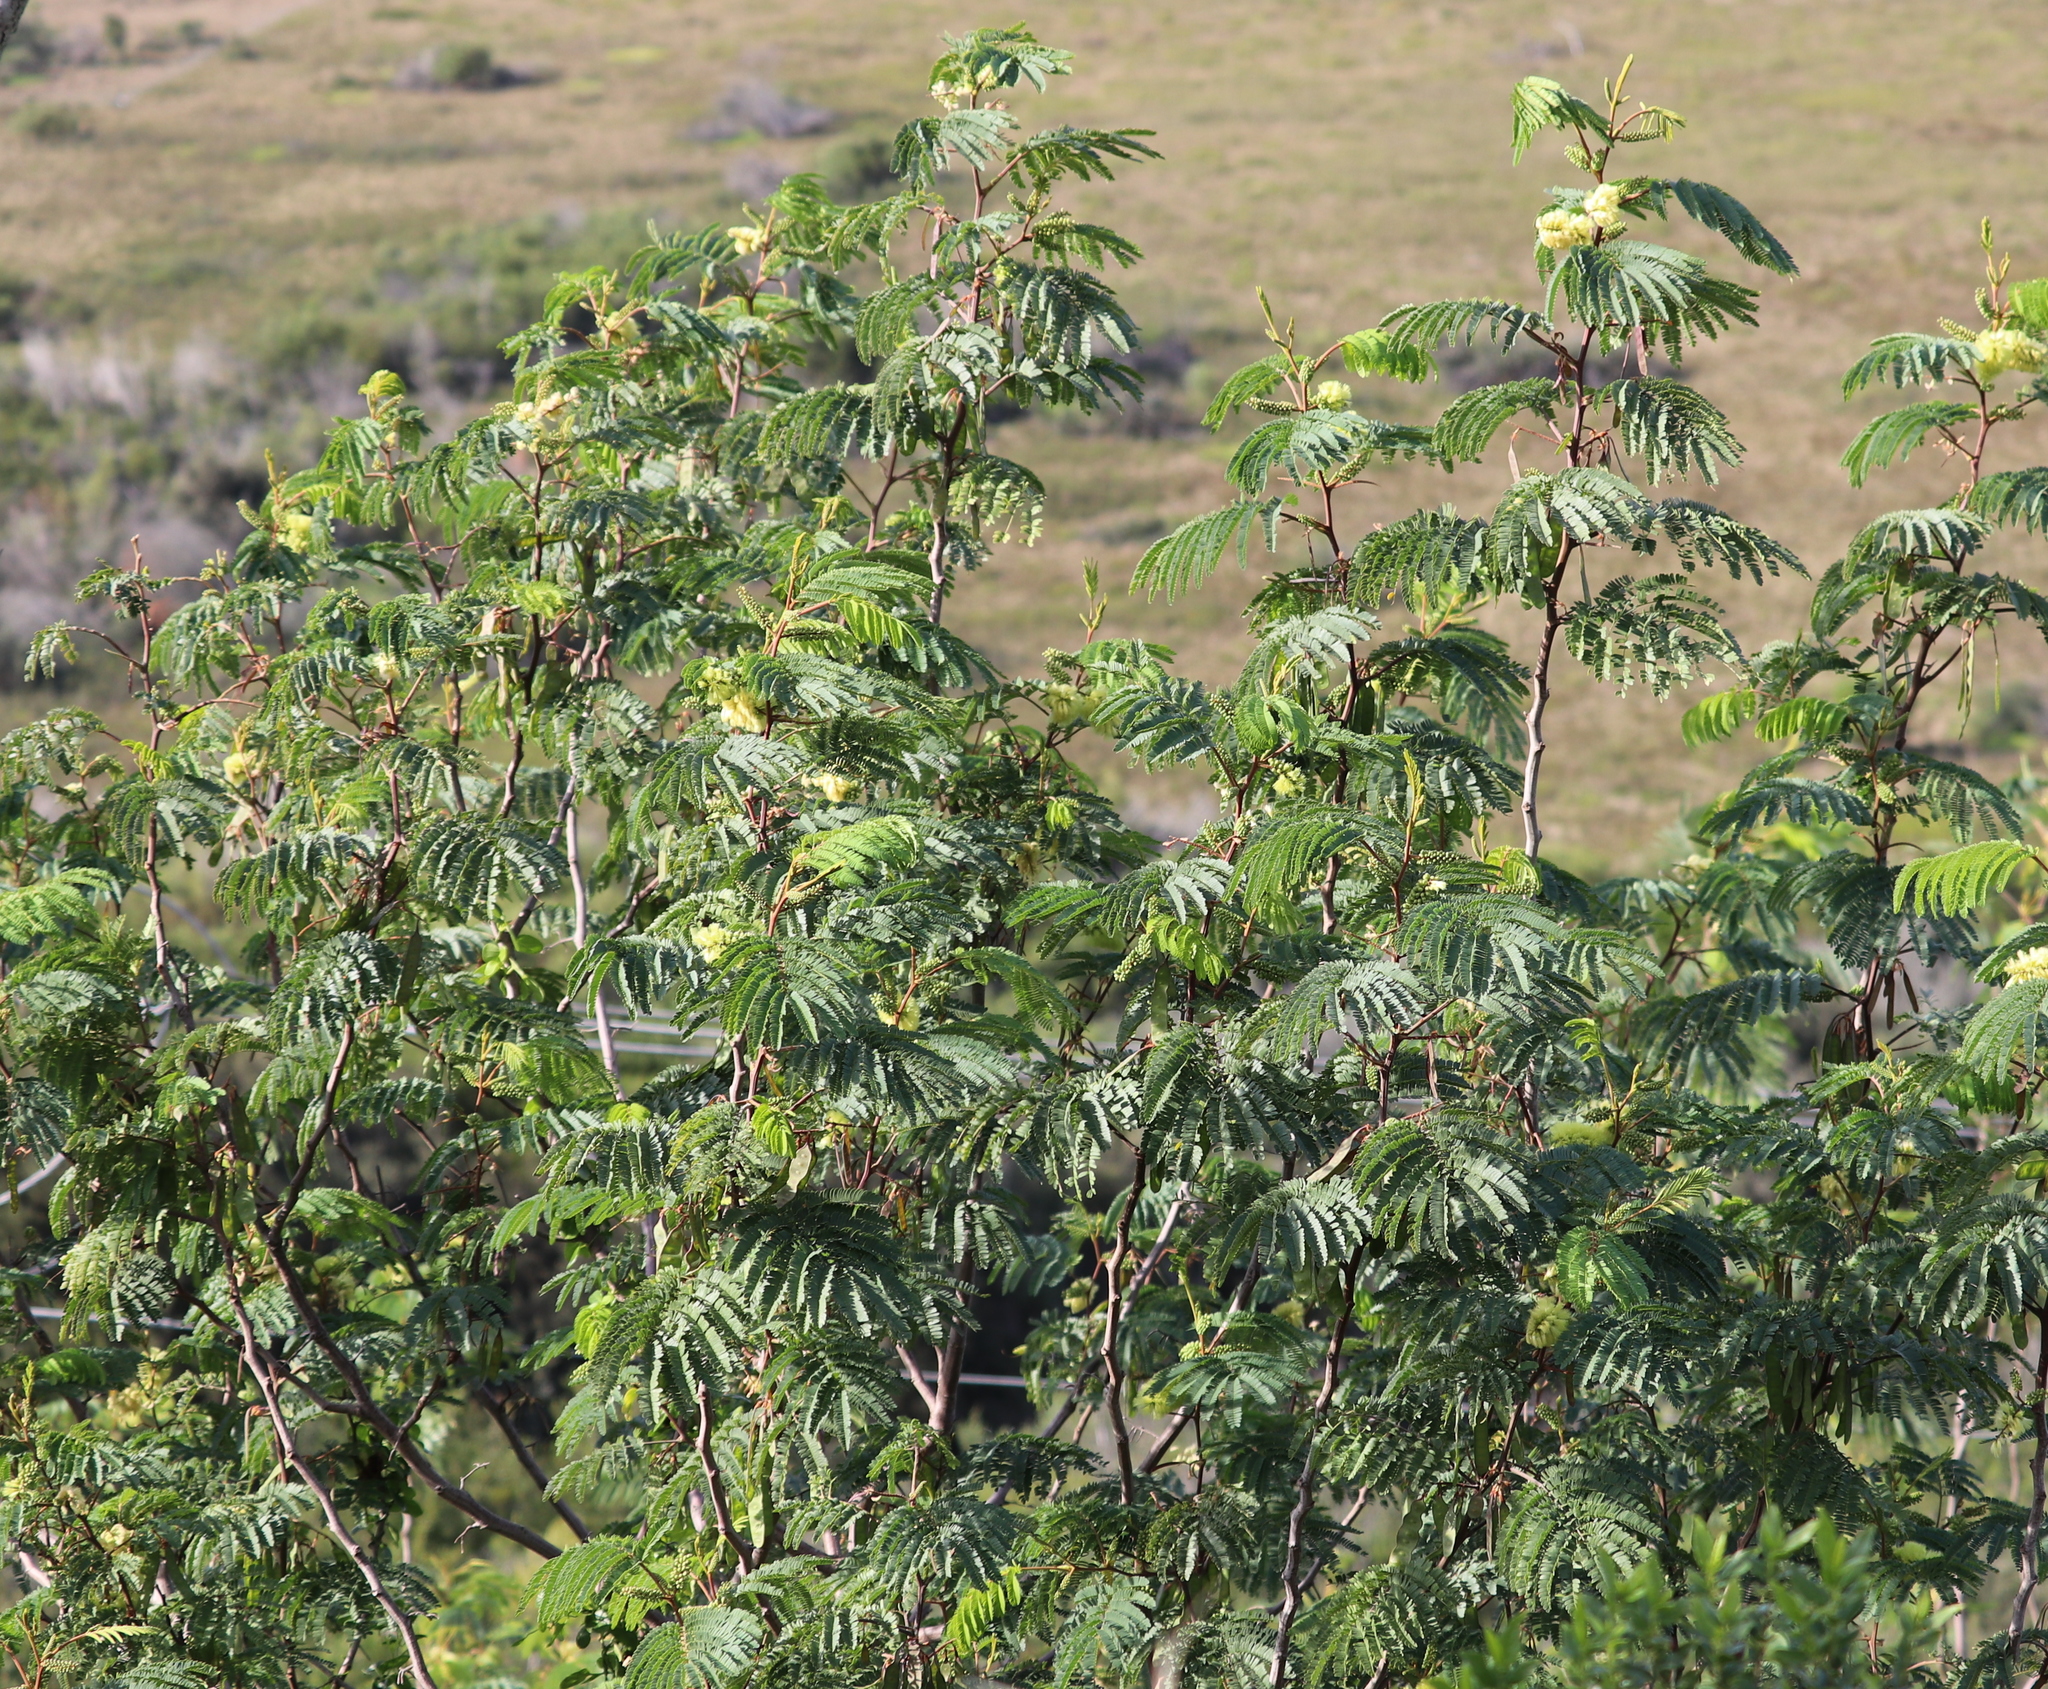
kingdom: Plantae
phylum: Tracheophyta
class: Magnoliopsida
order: Fabales
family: Fabaceae
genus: Paraserianthes
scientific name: Paraserianthes lophantha
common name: Plume albizia
